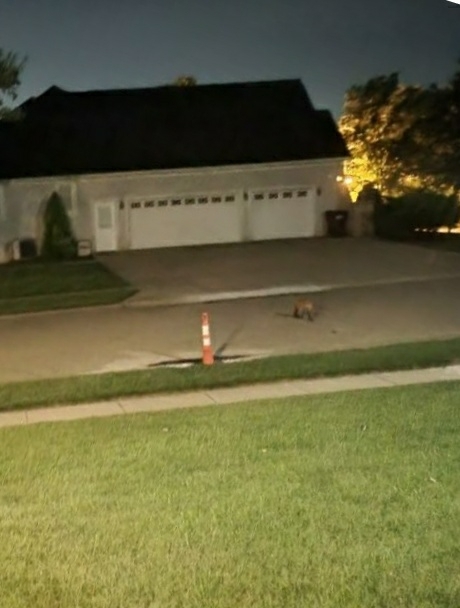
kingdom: Animalia
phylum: Chordata
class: Mammalia
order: Carnivora
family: Canidae
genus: Vulpes
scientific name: Vulpes vulpes
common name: Red fox
